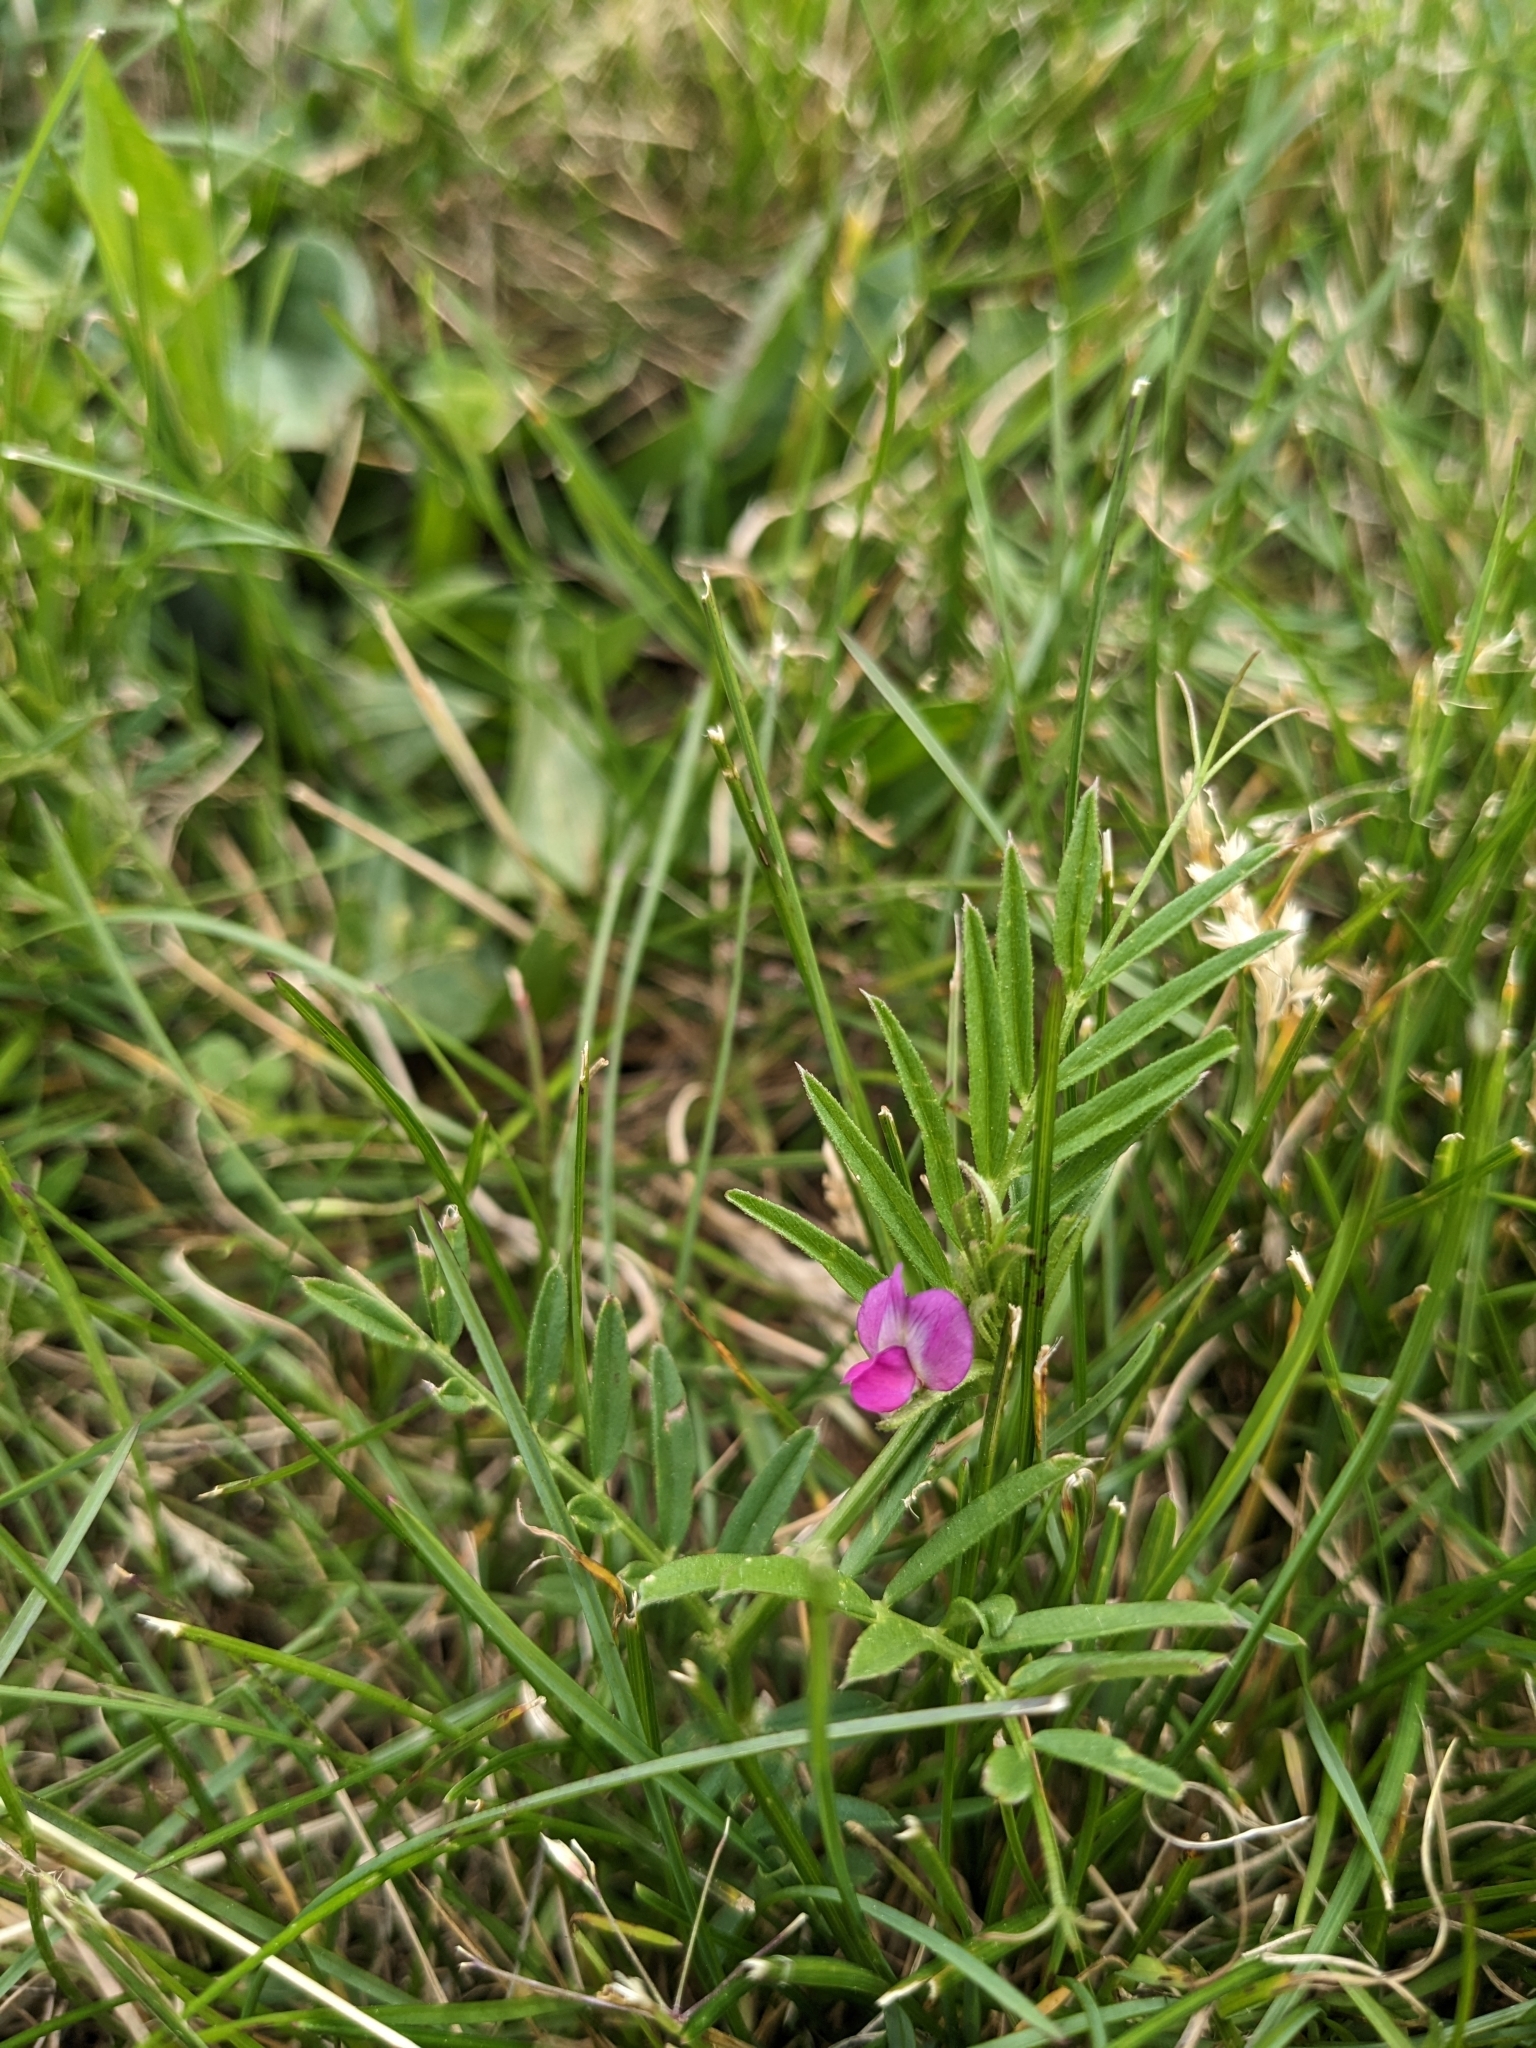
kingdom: Plantae
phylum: Tracheophyta
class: Magnoliopsida
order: Fabales
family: Fabaceae
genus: Vicia
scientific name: Vicia sativa
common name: Garden vetch
